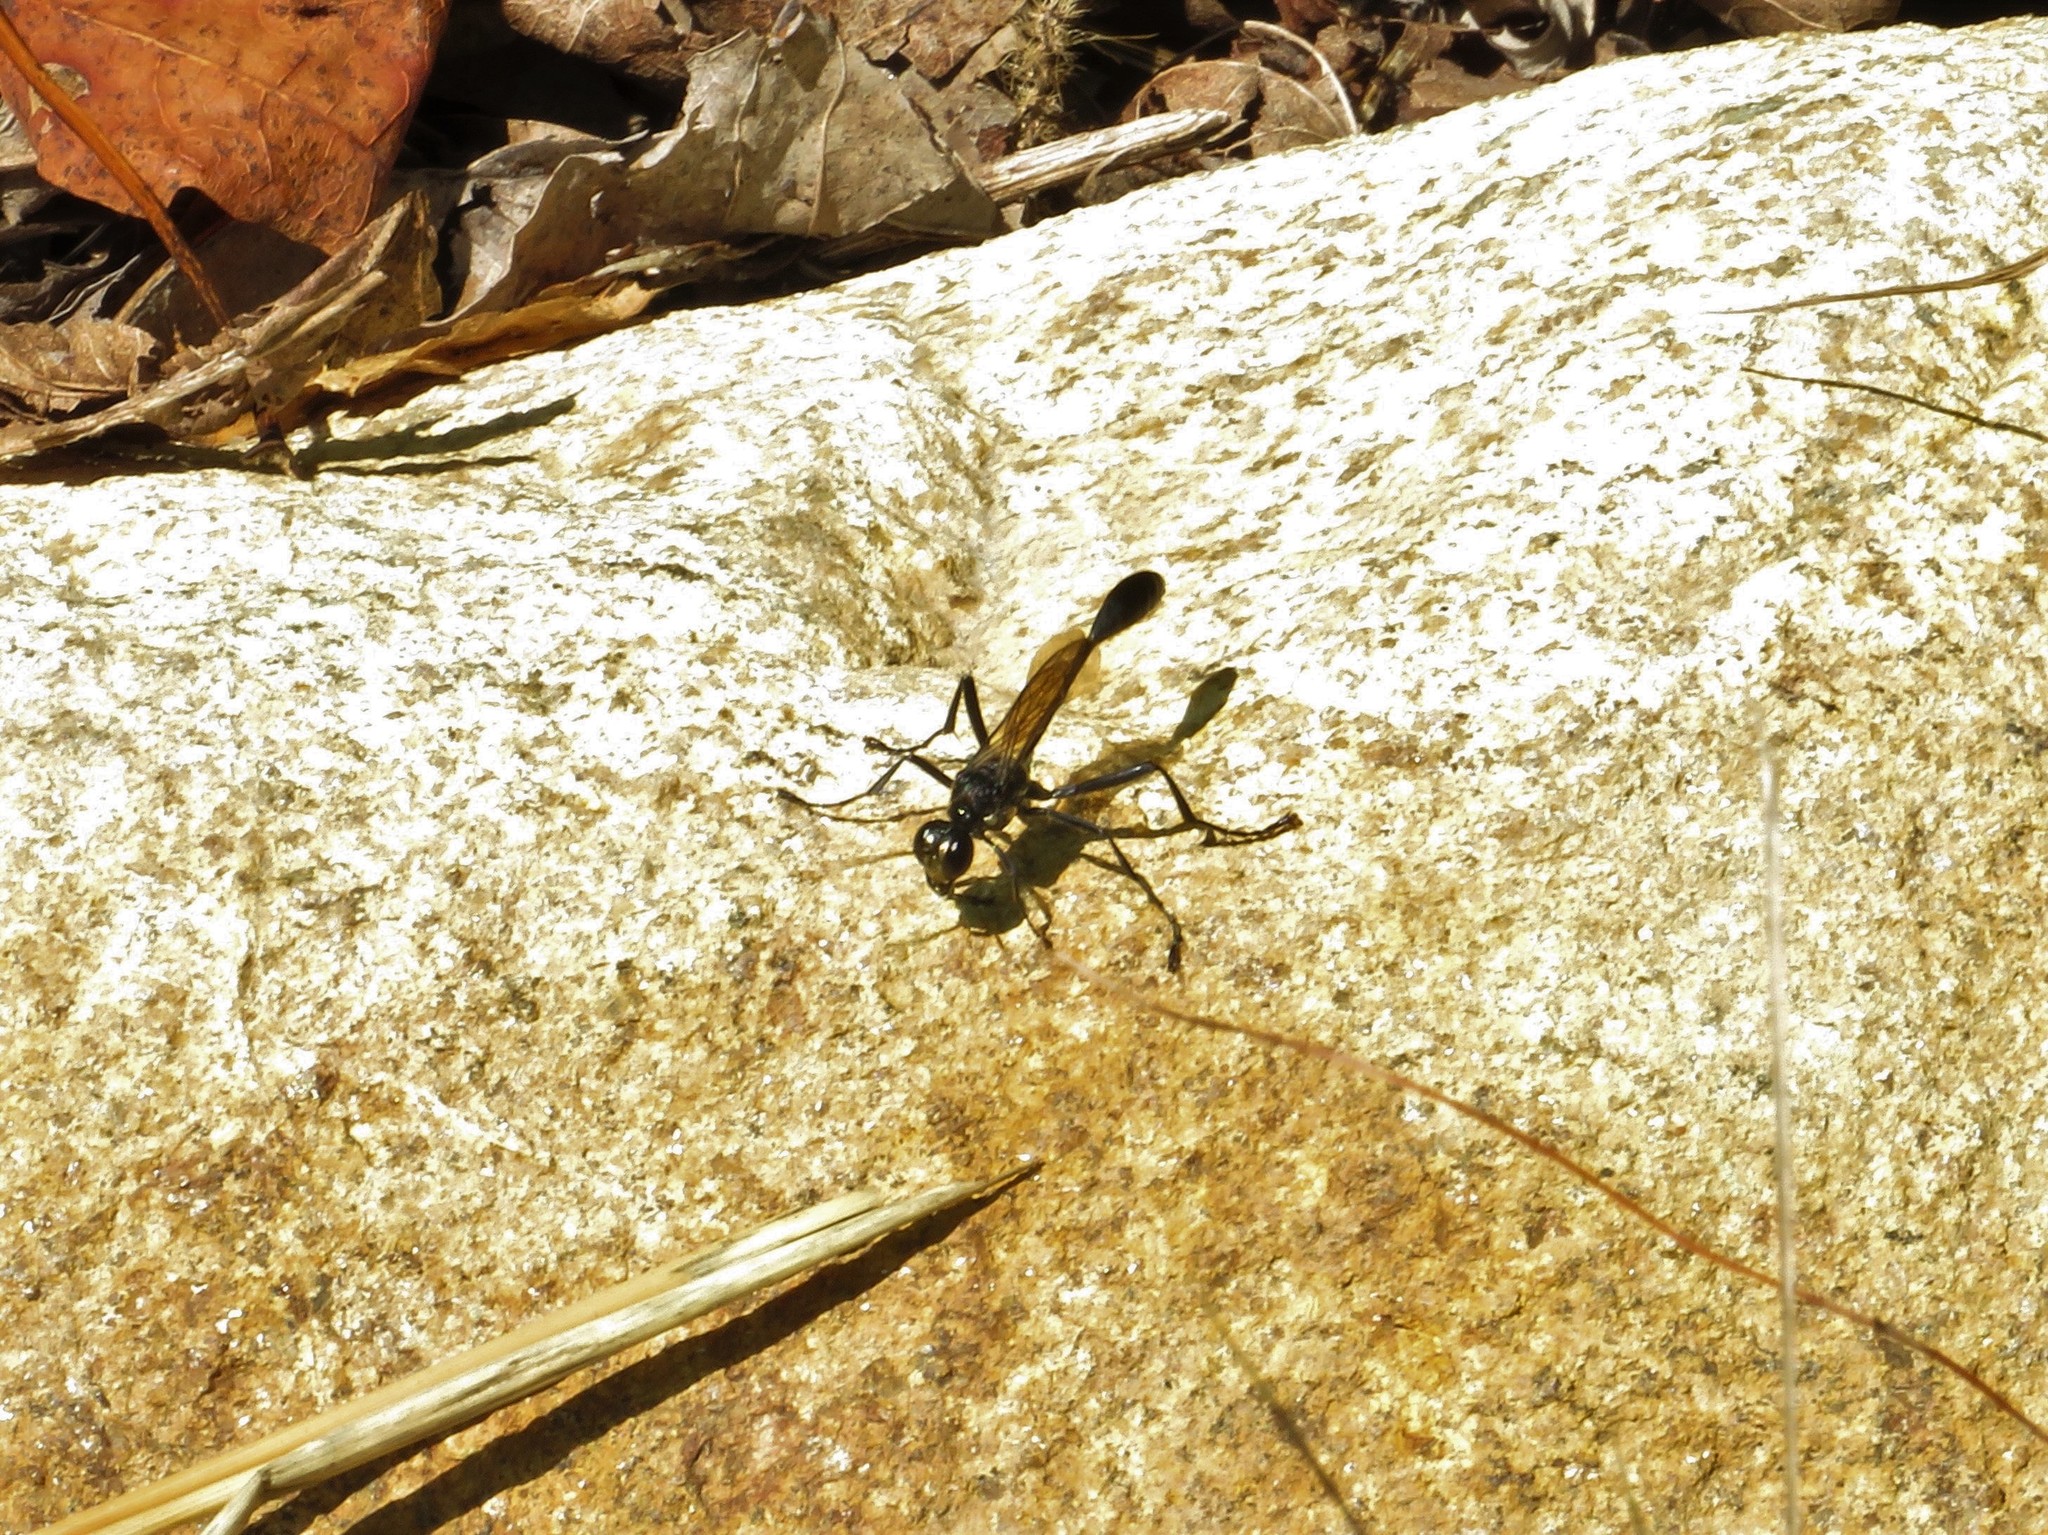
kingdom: Animalia
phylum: Arthropoda
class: Insecta
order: Hymenoptera
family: Sphecidae
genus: Eremnophila
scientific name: Eremnophila aureonotata
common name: Gold-marked thread-waisted wasp
